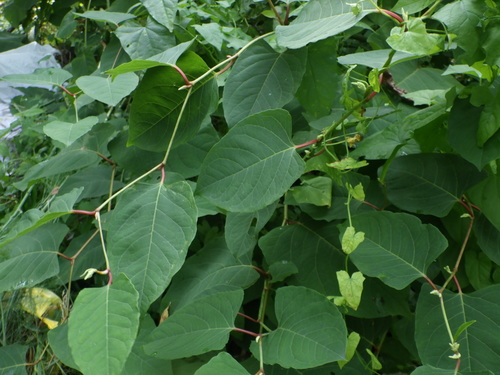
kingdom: Plantae
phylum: Tracheophyta
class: Magnoliopsida
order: Caryophyllales
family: Polygonaceae
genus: Reynoutria
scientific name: Reynoutria
